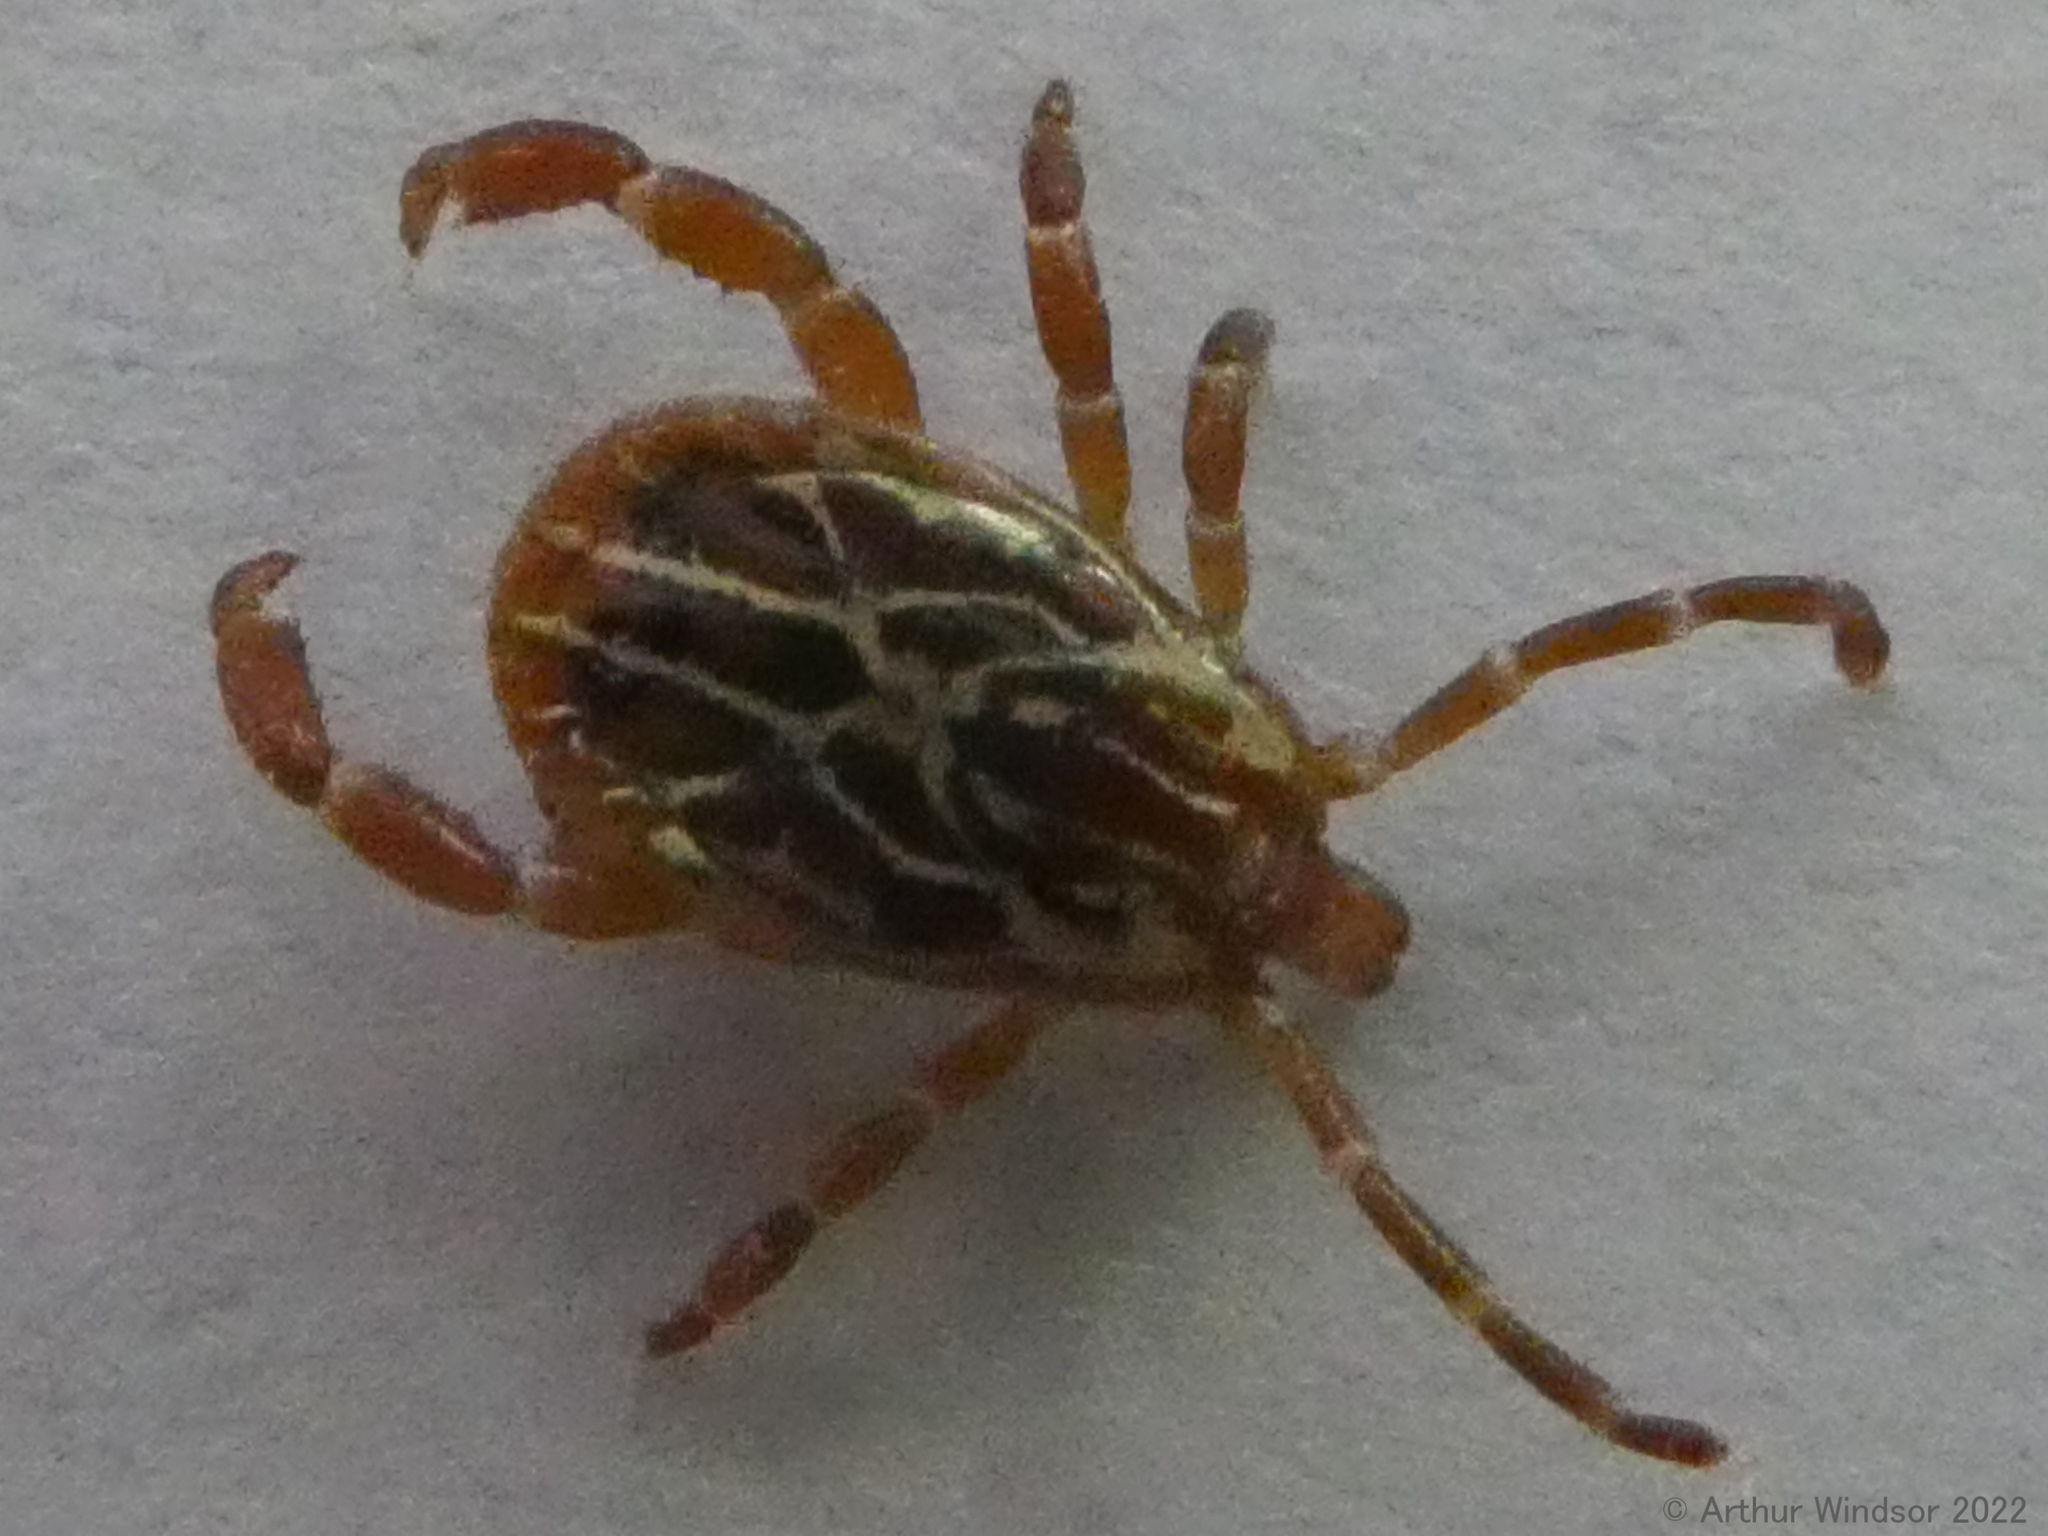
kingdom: Animalia
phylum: Arthropoda
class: Arachnida
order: Ixodida
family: Ixodidae
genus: Amblyomma
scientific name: Amblyomma maculatum
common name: Gulf coast tick
